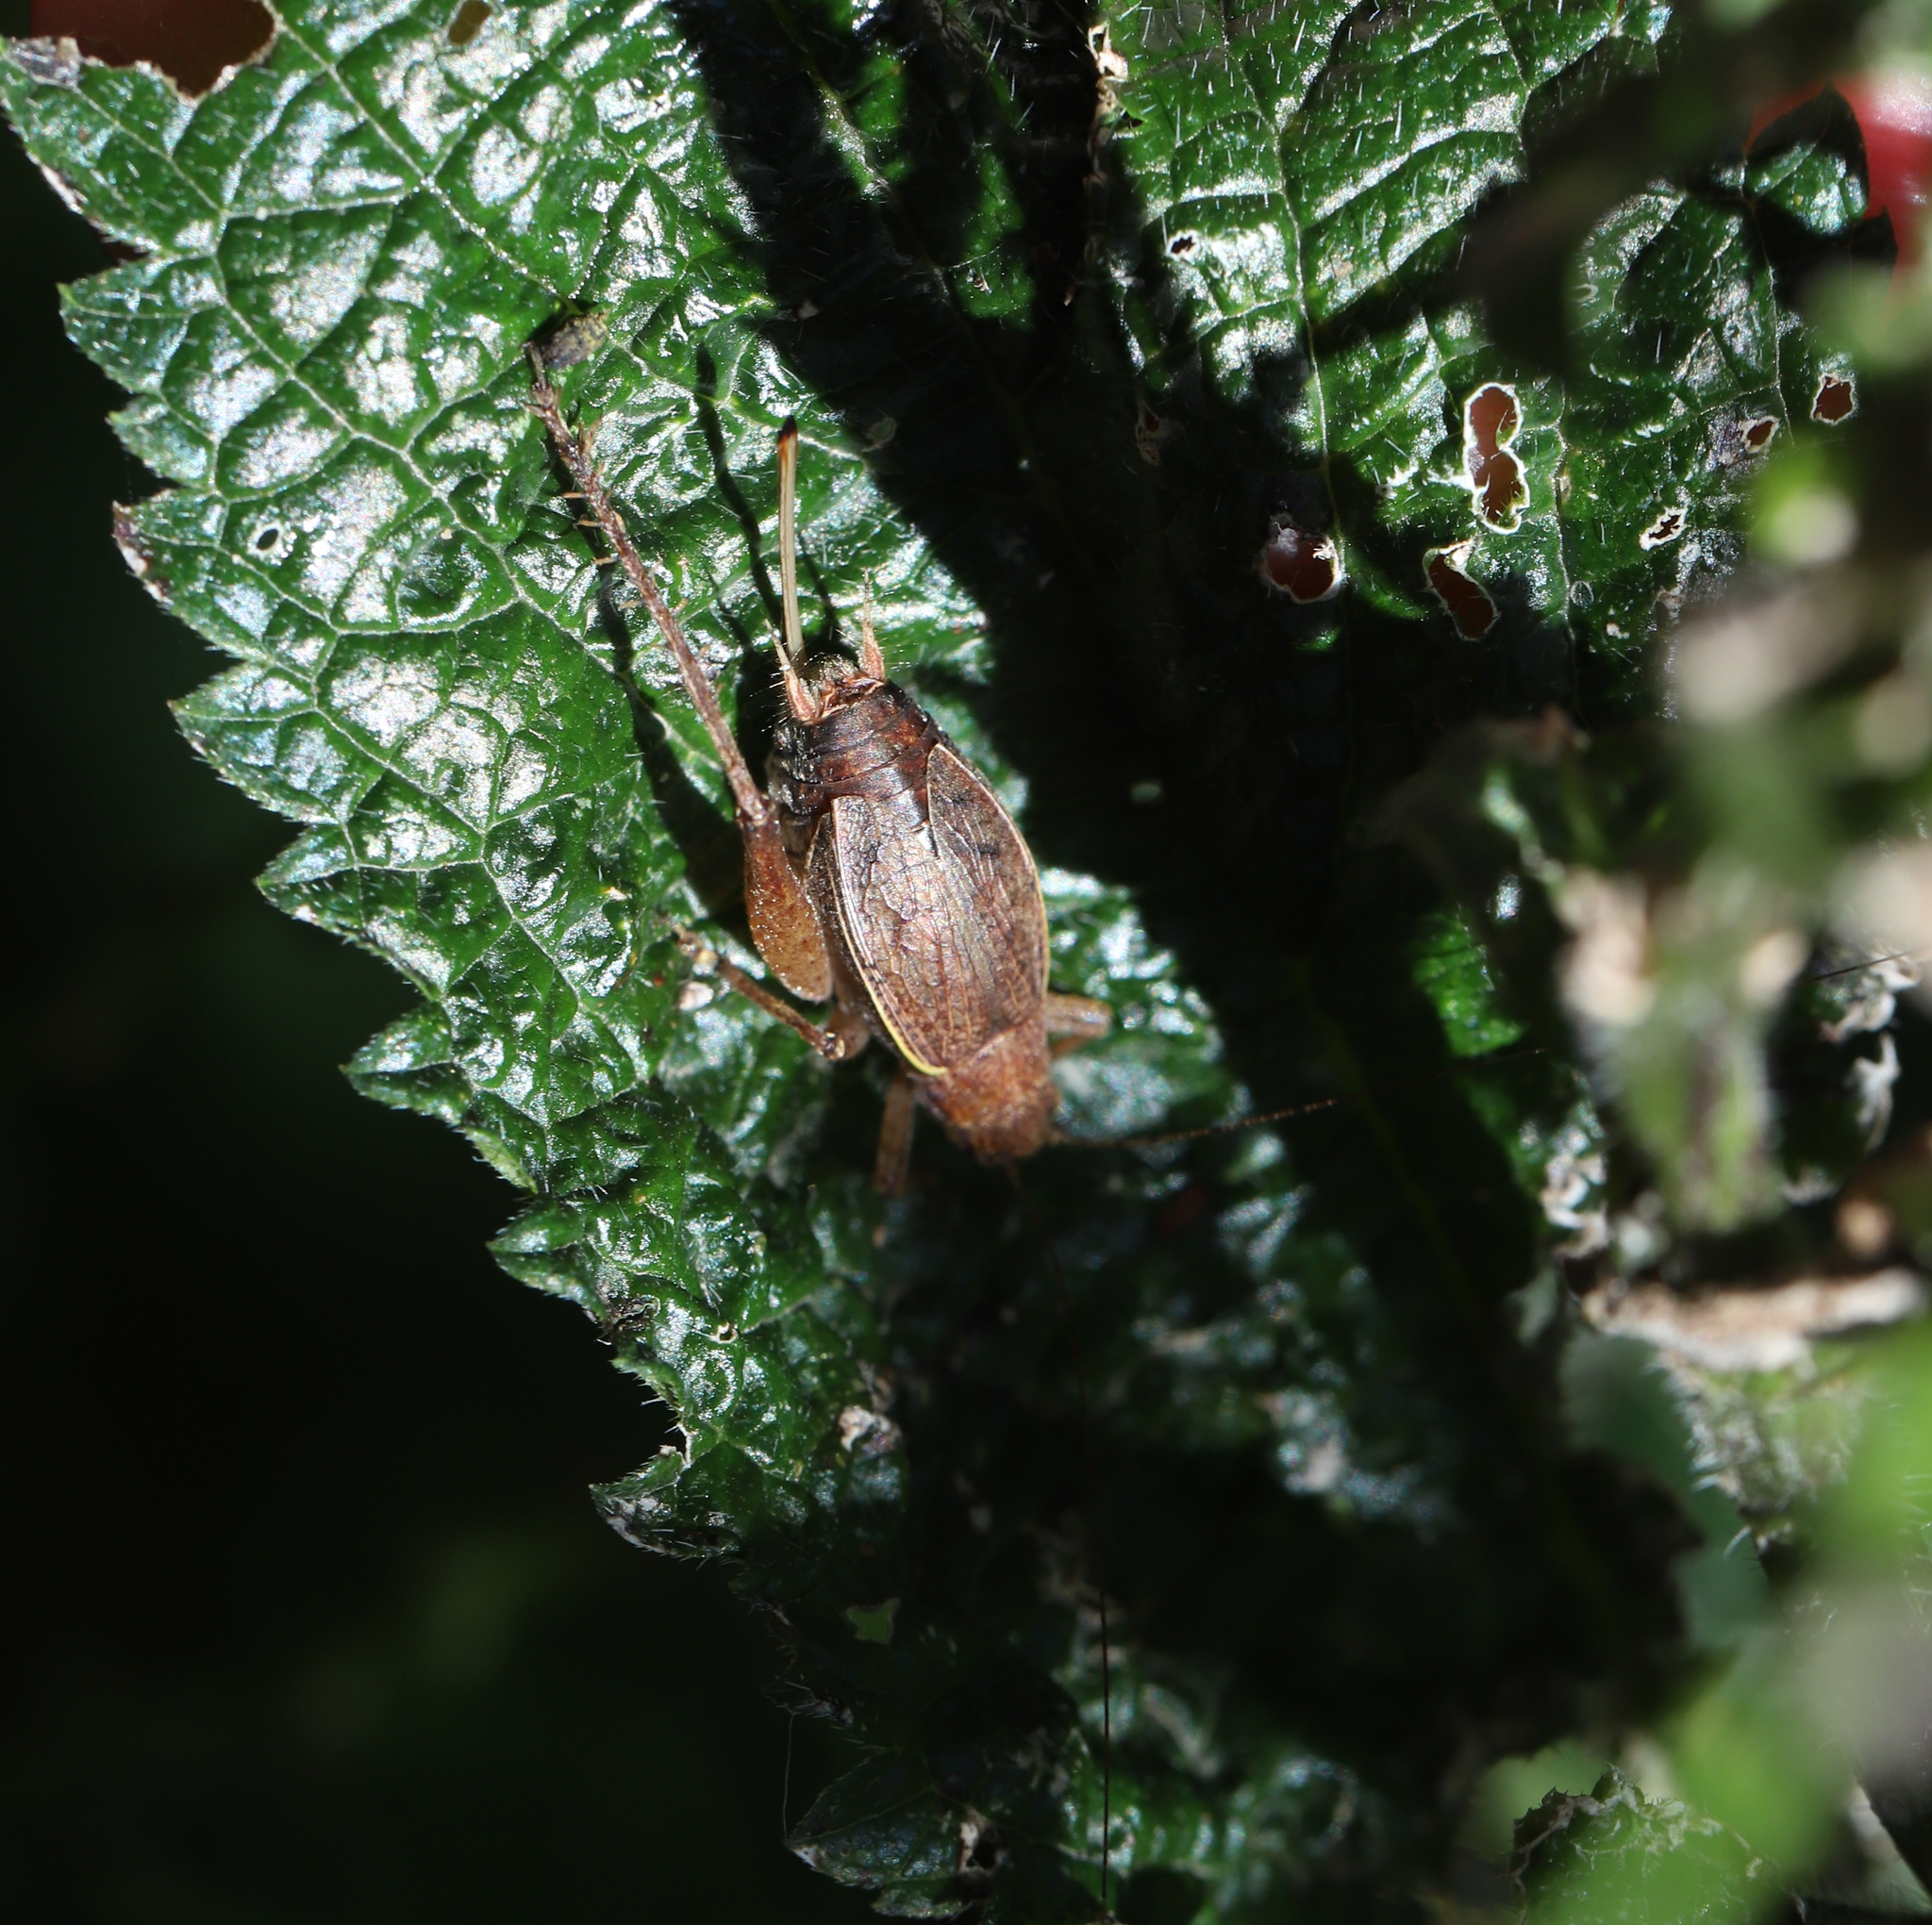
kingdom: Animalia
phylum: Arthropoda
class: Insecta
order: Orthoptera
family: Gryllidae
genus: Hapithus
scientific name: Hapithus agitator
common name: Restless bush cricket
